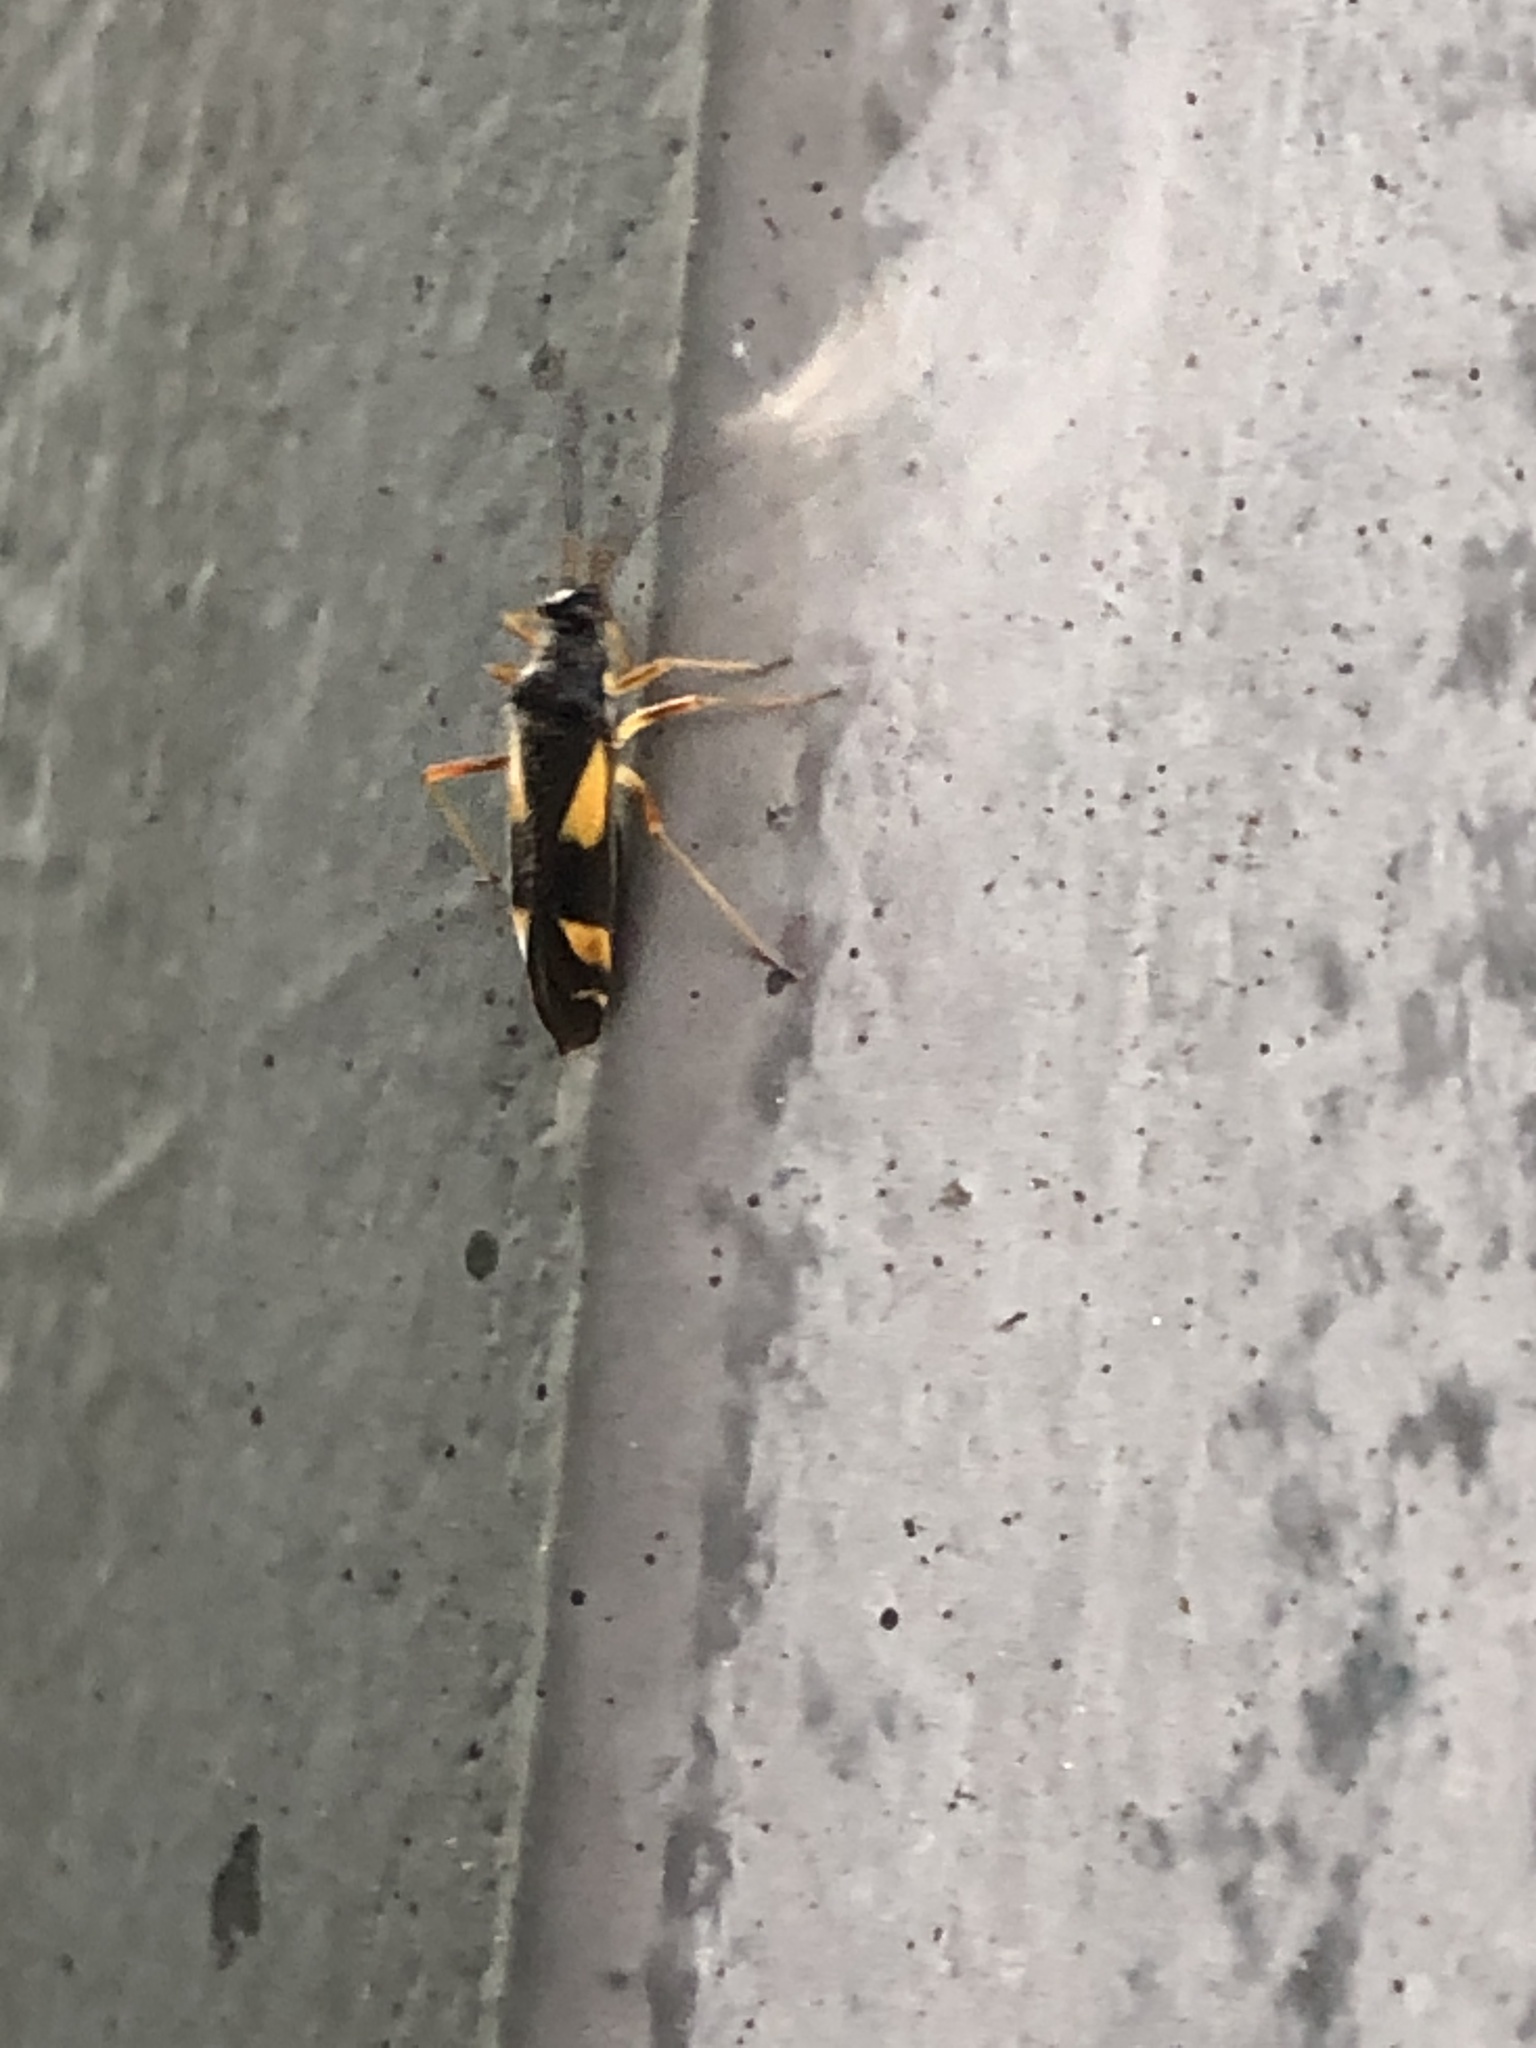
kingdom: Animalia
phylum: Arthropoda
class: Insecta
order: Hemiptera
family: Miridae
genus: Dryophilocoris
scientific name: Dryophilocoris flavoquadrimaculatus
